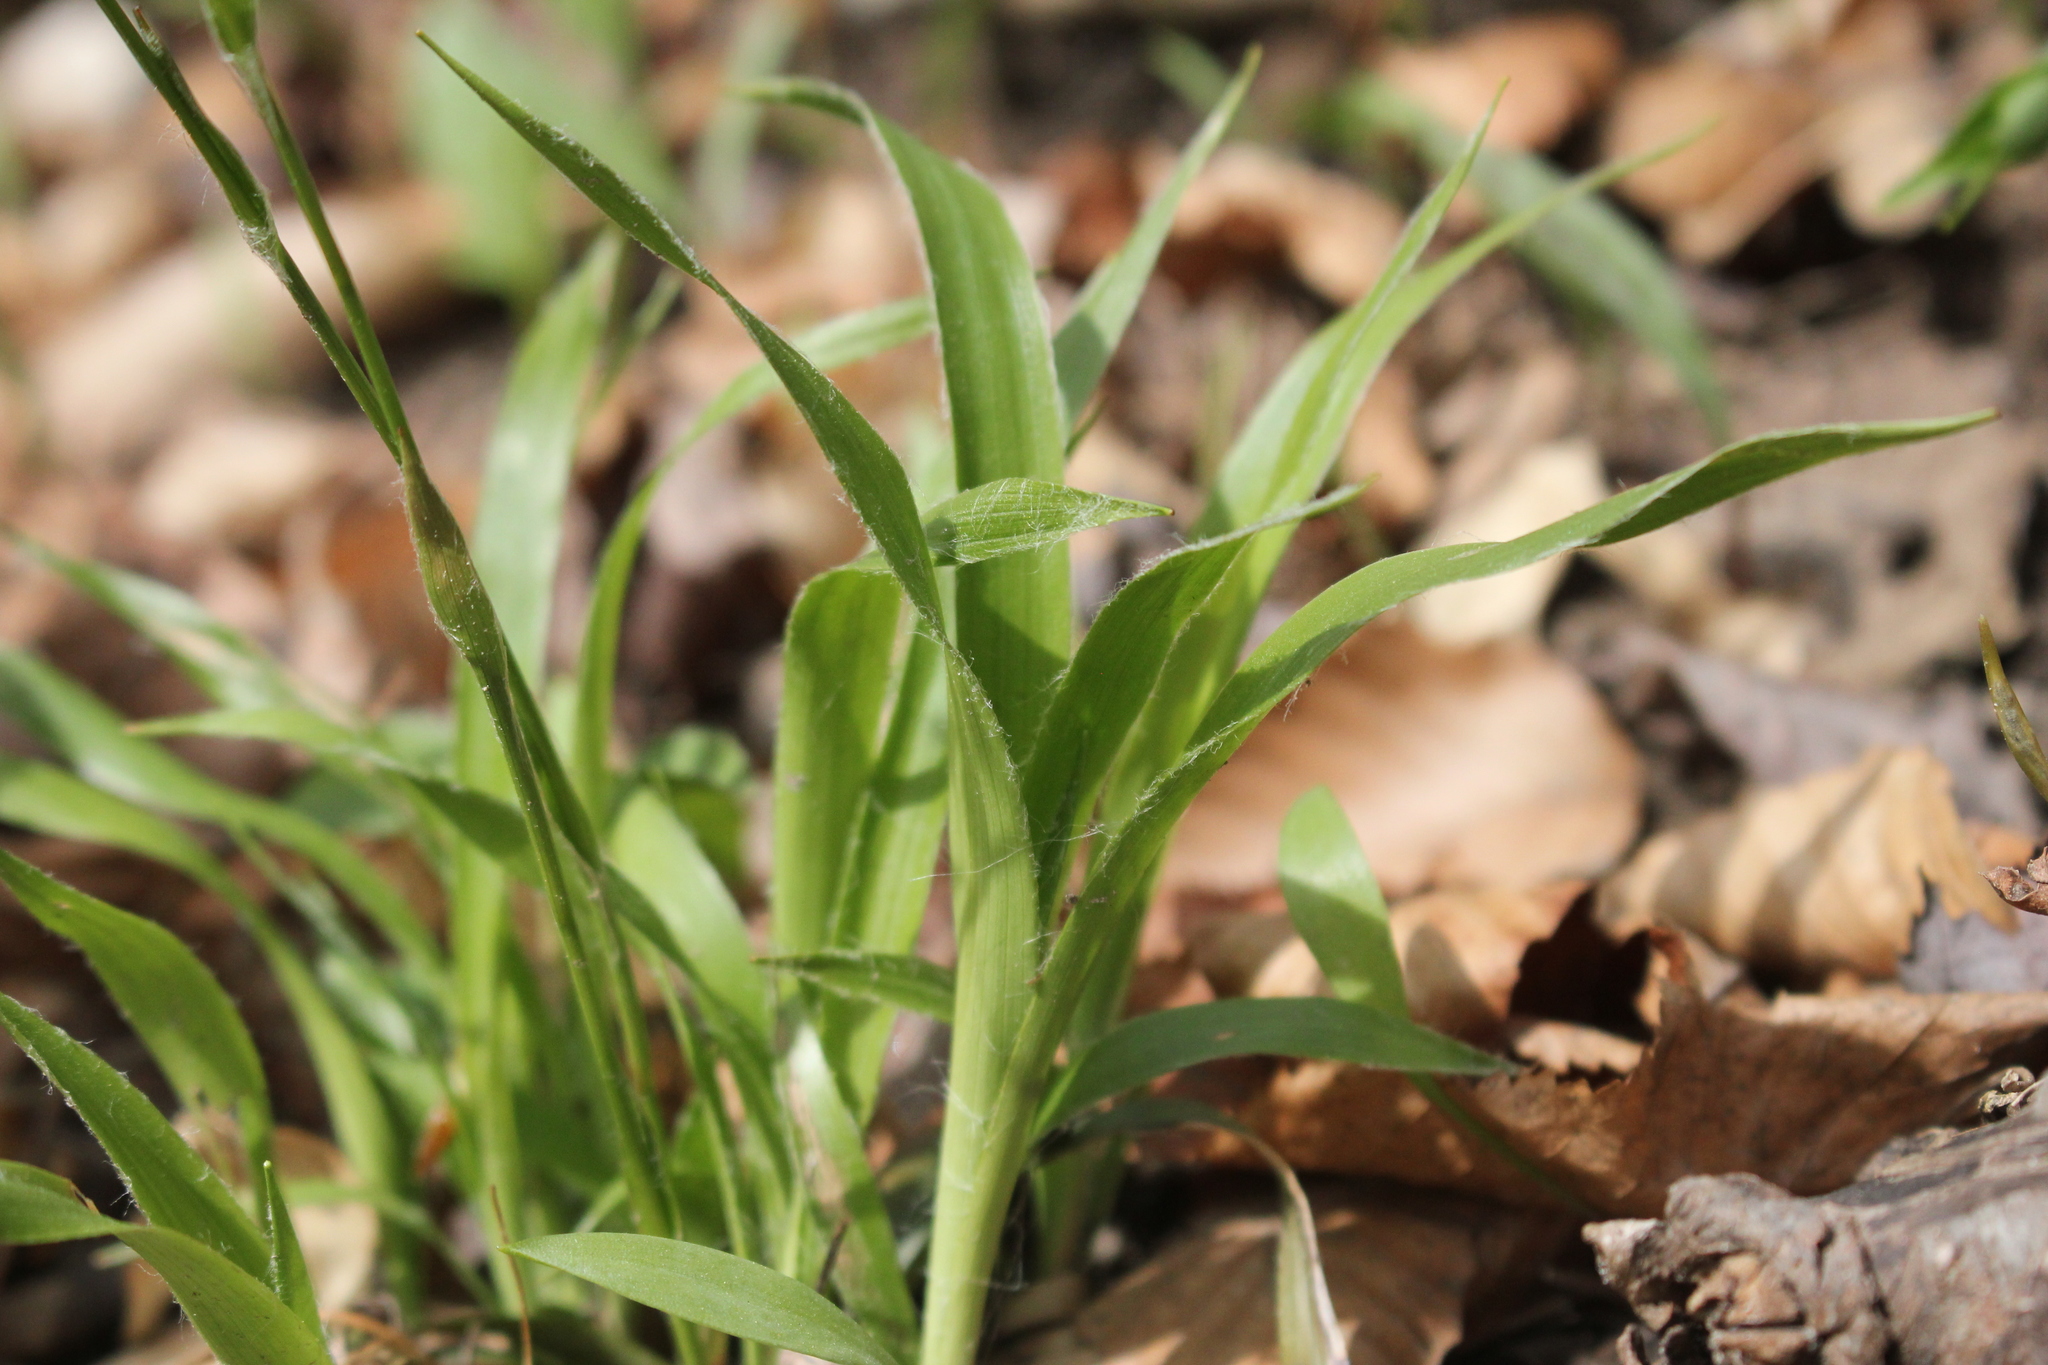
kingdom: Plantae
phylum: Tracheophyta
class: Liliopsida
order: Poales
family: Juncaceae
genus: Luzula
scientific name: Luzula acuminata
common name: Hairy woodrush
